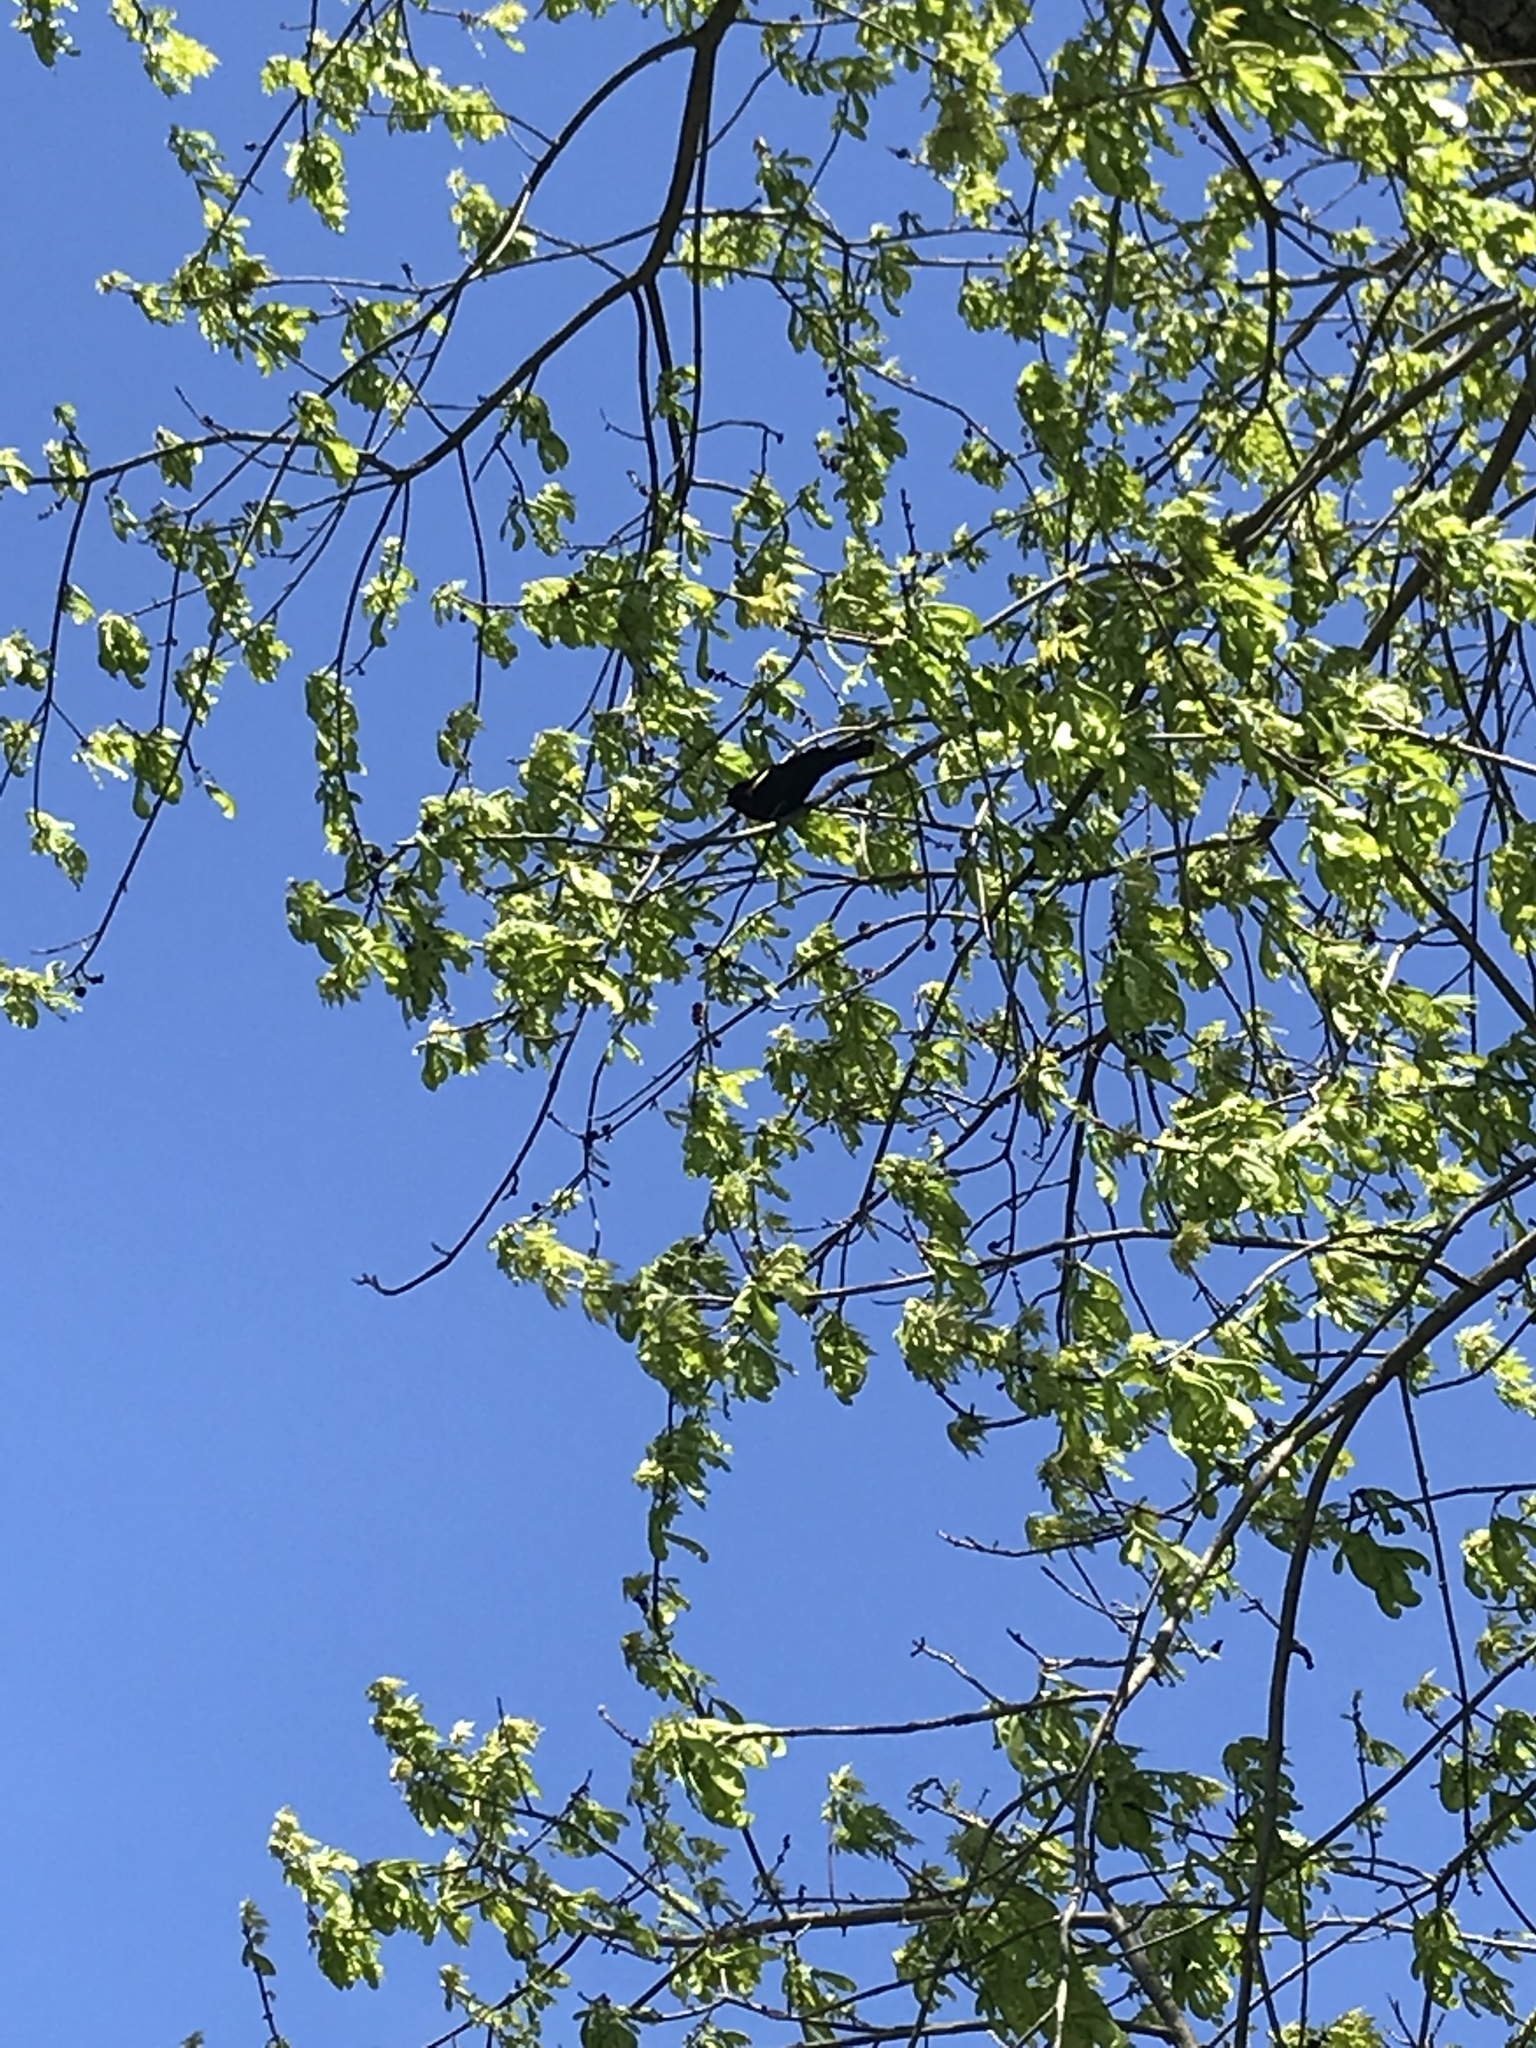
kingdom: Animalia
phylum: Chordata
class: Aves
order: Passeriformes
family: Icteridae
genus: Agelaius
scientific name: Agelaius phoeniceus
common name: Red-winged blackbird
